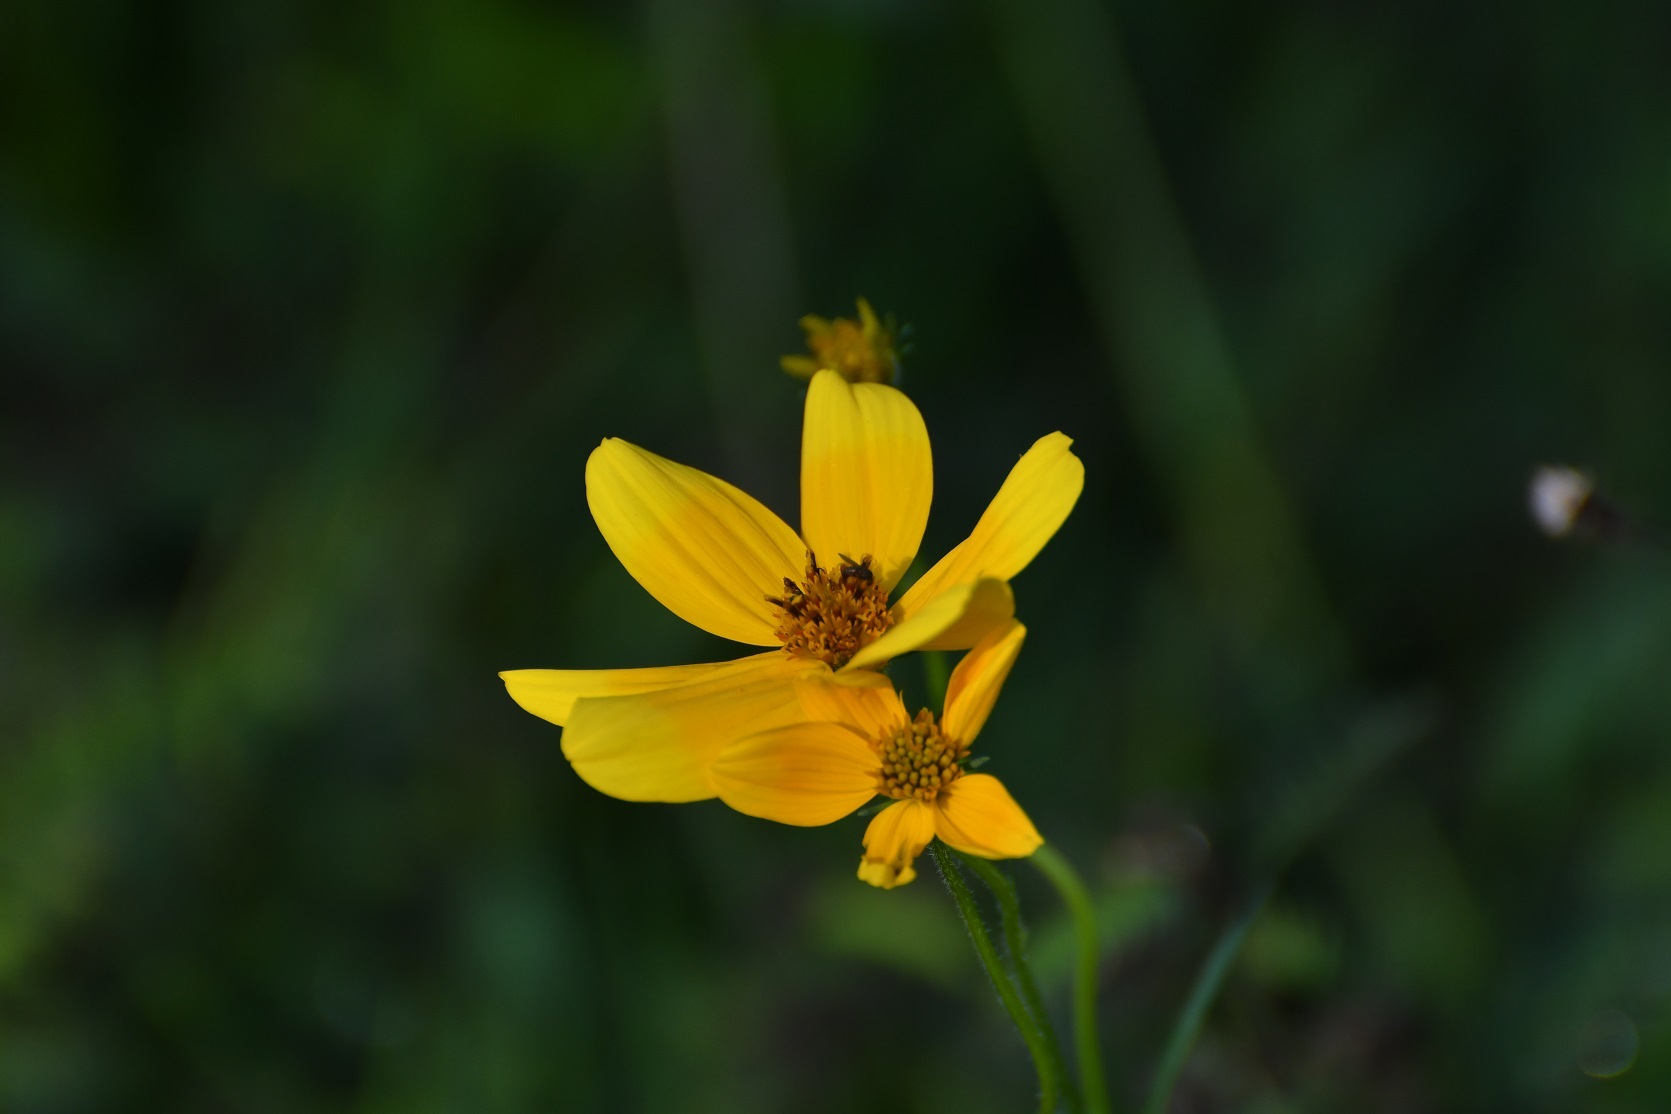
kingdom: Plantae
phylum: Tracheophyta
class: Magnoliopsida
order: Asterales
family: Asteraceae
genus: Bidens
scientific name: Bidens aurea
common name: Arizona beggar-ticks
